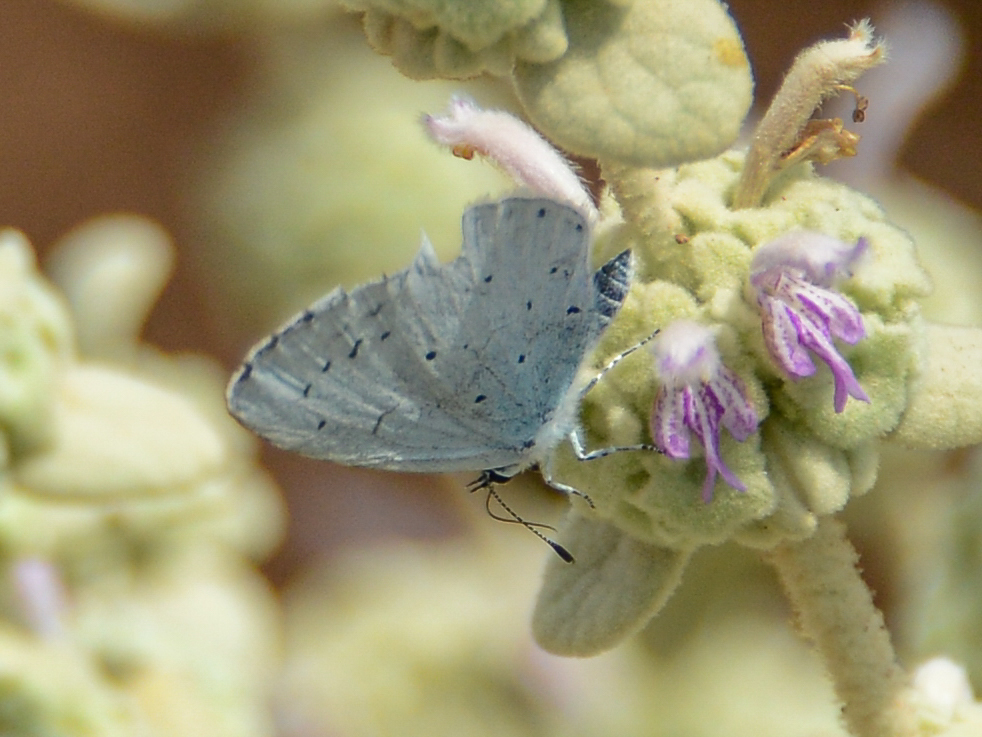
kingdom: Animalia
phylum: Arthropoda
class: Insecta
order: Lepidoptera
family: Lycaenidae
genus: Celastrina
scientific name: Celastrina argiolus
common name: Holly blue
